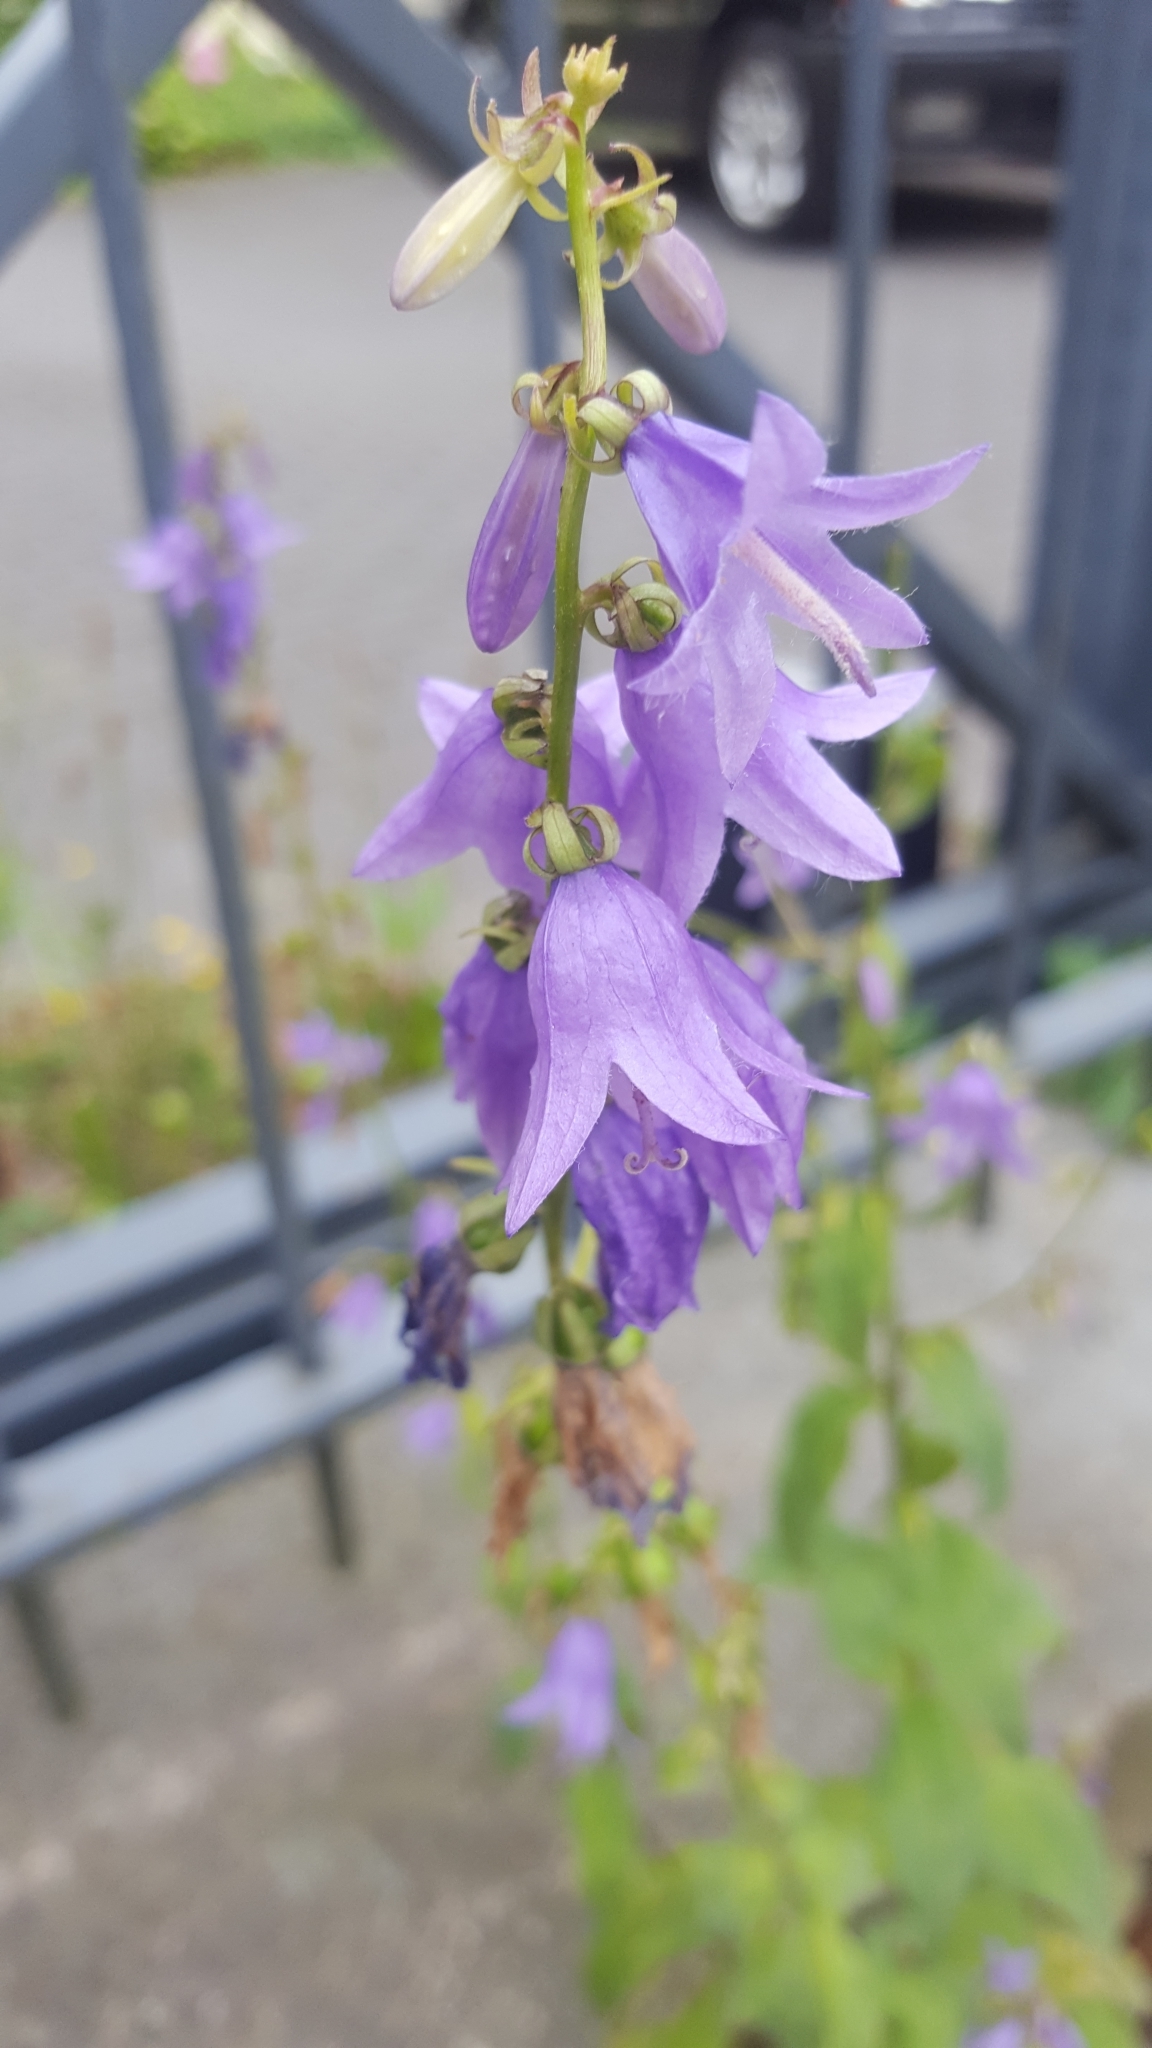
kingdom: Plantae
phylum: Tracheophyta
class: Magnoliopsida
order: Asterales
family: Campanulaceae
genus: Campanula
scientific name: Campanula rapunculoides
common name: Creeping bellflower
